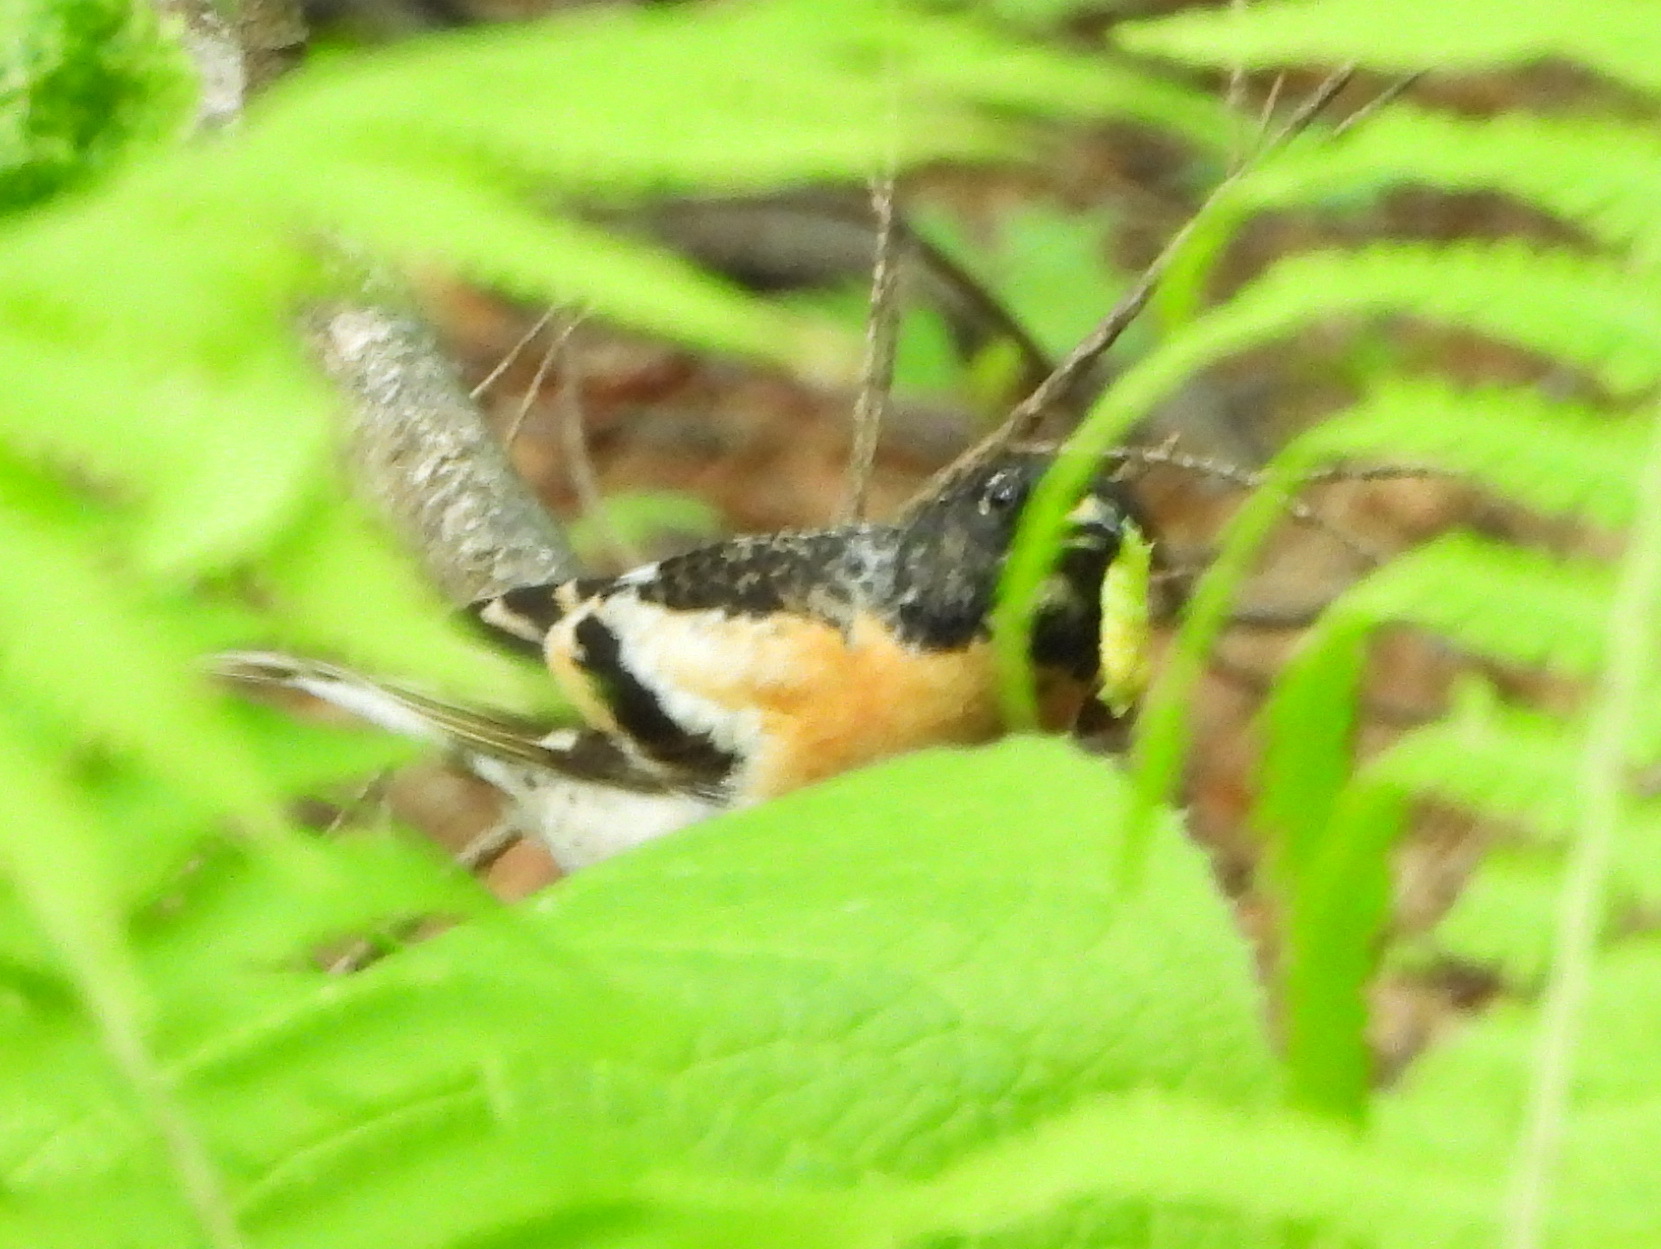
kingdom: Animalia
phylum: Chordata
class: Aves
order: Passeriformes
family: Fringillidae
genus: Fringilla
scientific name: Fringilla montifringilla
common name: Brambling
